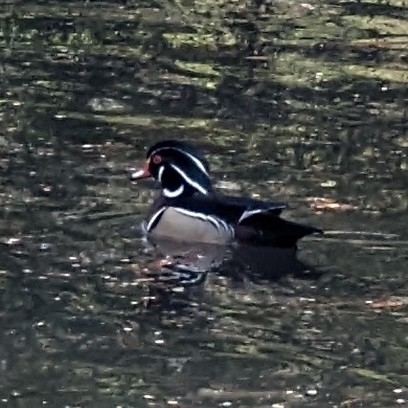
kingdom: Animalia
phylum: Chordata
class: Aves
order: Anseriformes
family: Anatidae
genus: Aix
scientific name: Aix sponsa
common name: Wood duck
